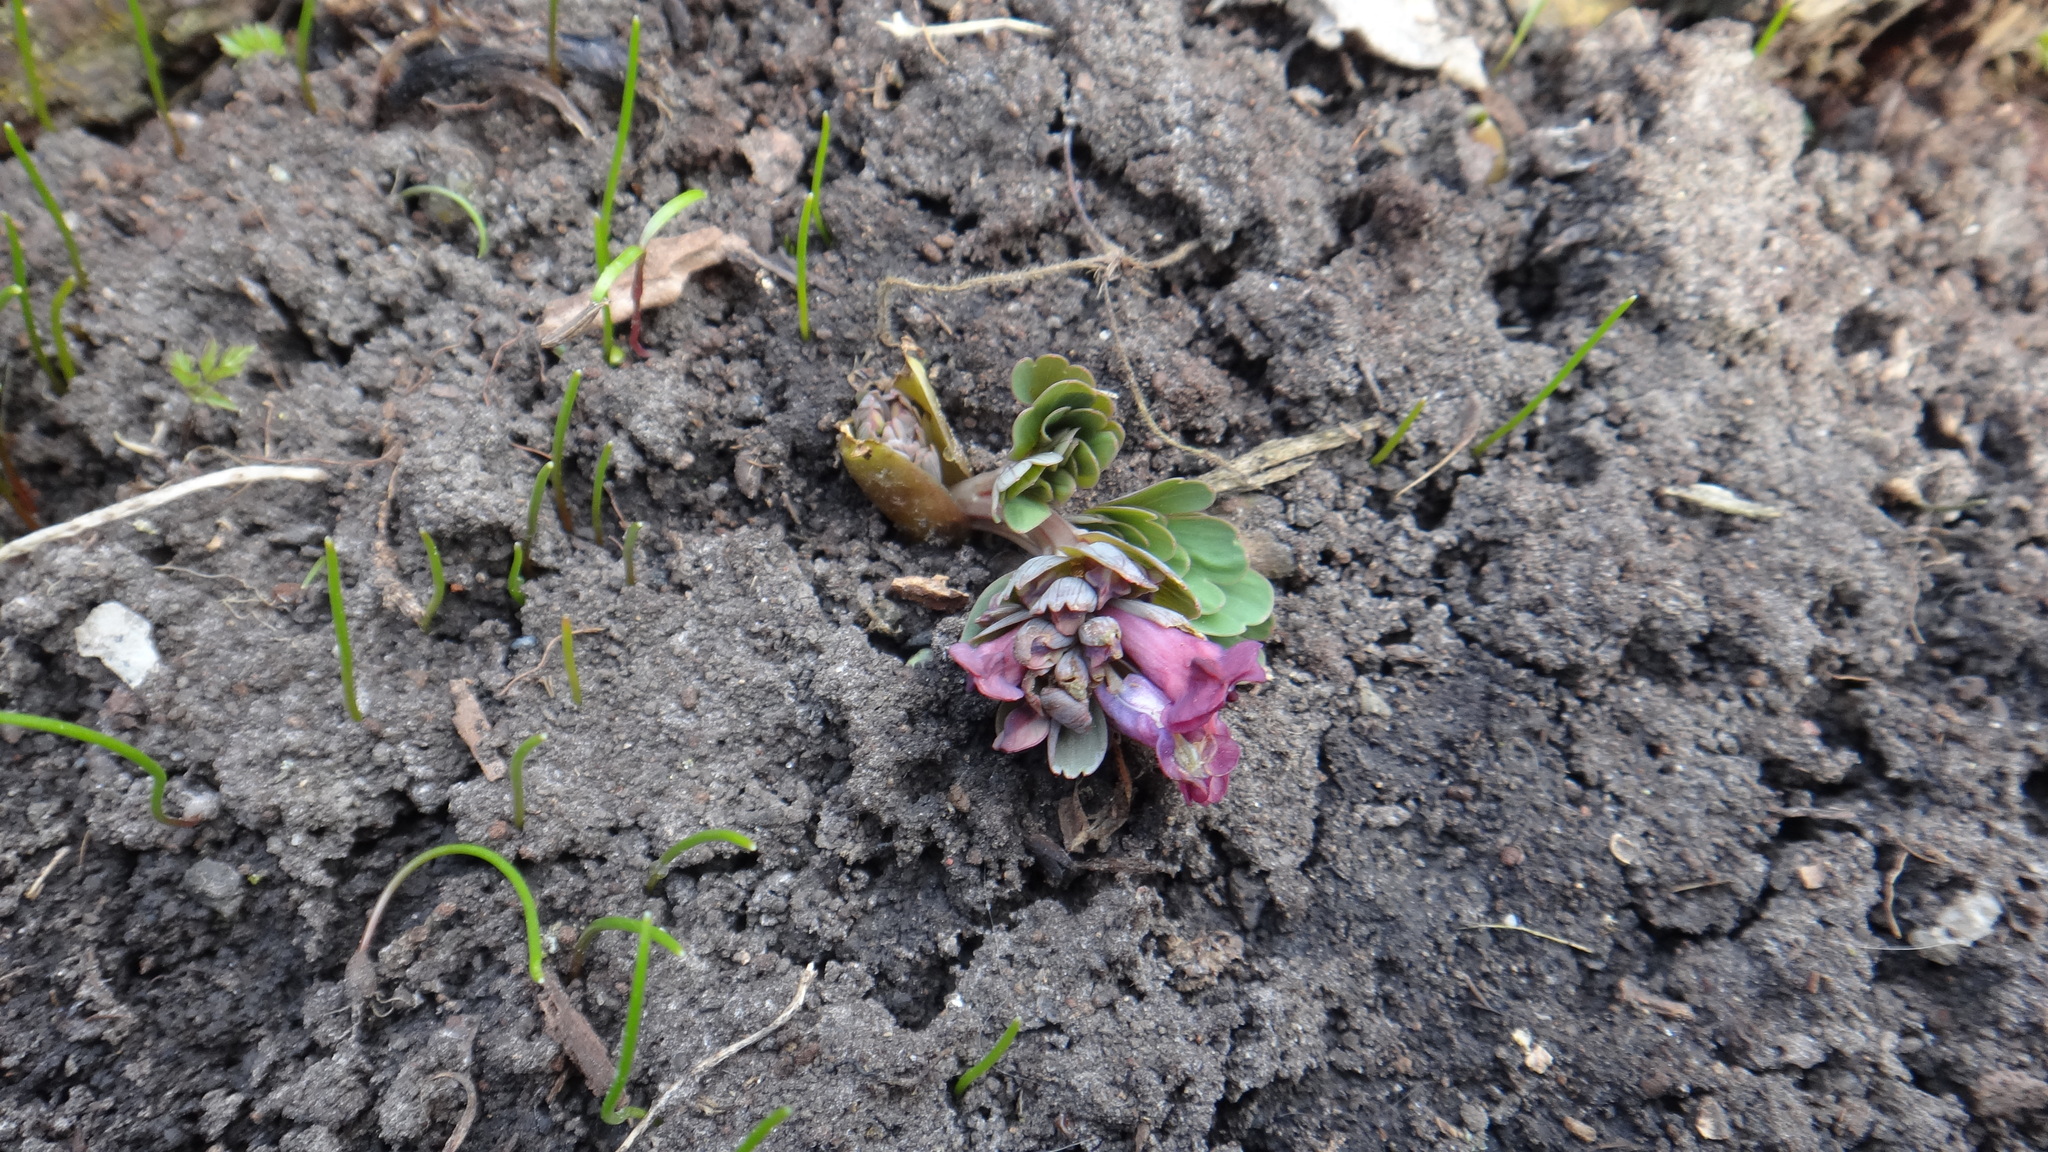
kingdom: Plantae
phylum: Tracheophyta
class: Magnoliopsida
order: Ranunculales
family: Papaveraceae
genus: Corydalis
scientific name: Corydalis solida
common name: Bird-in-a-bush
